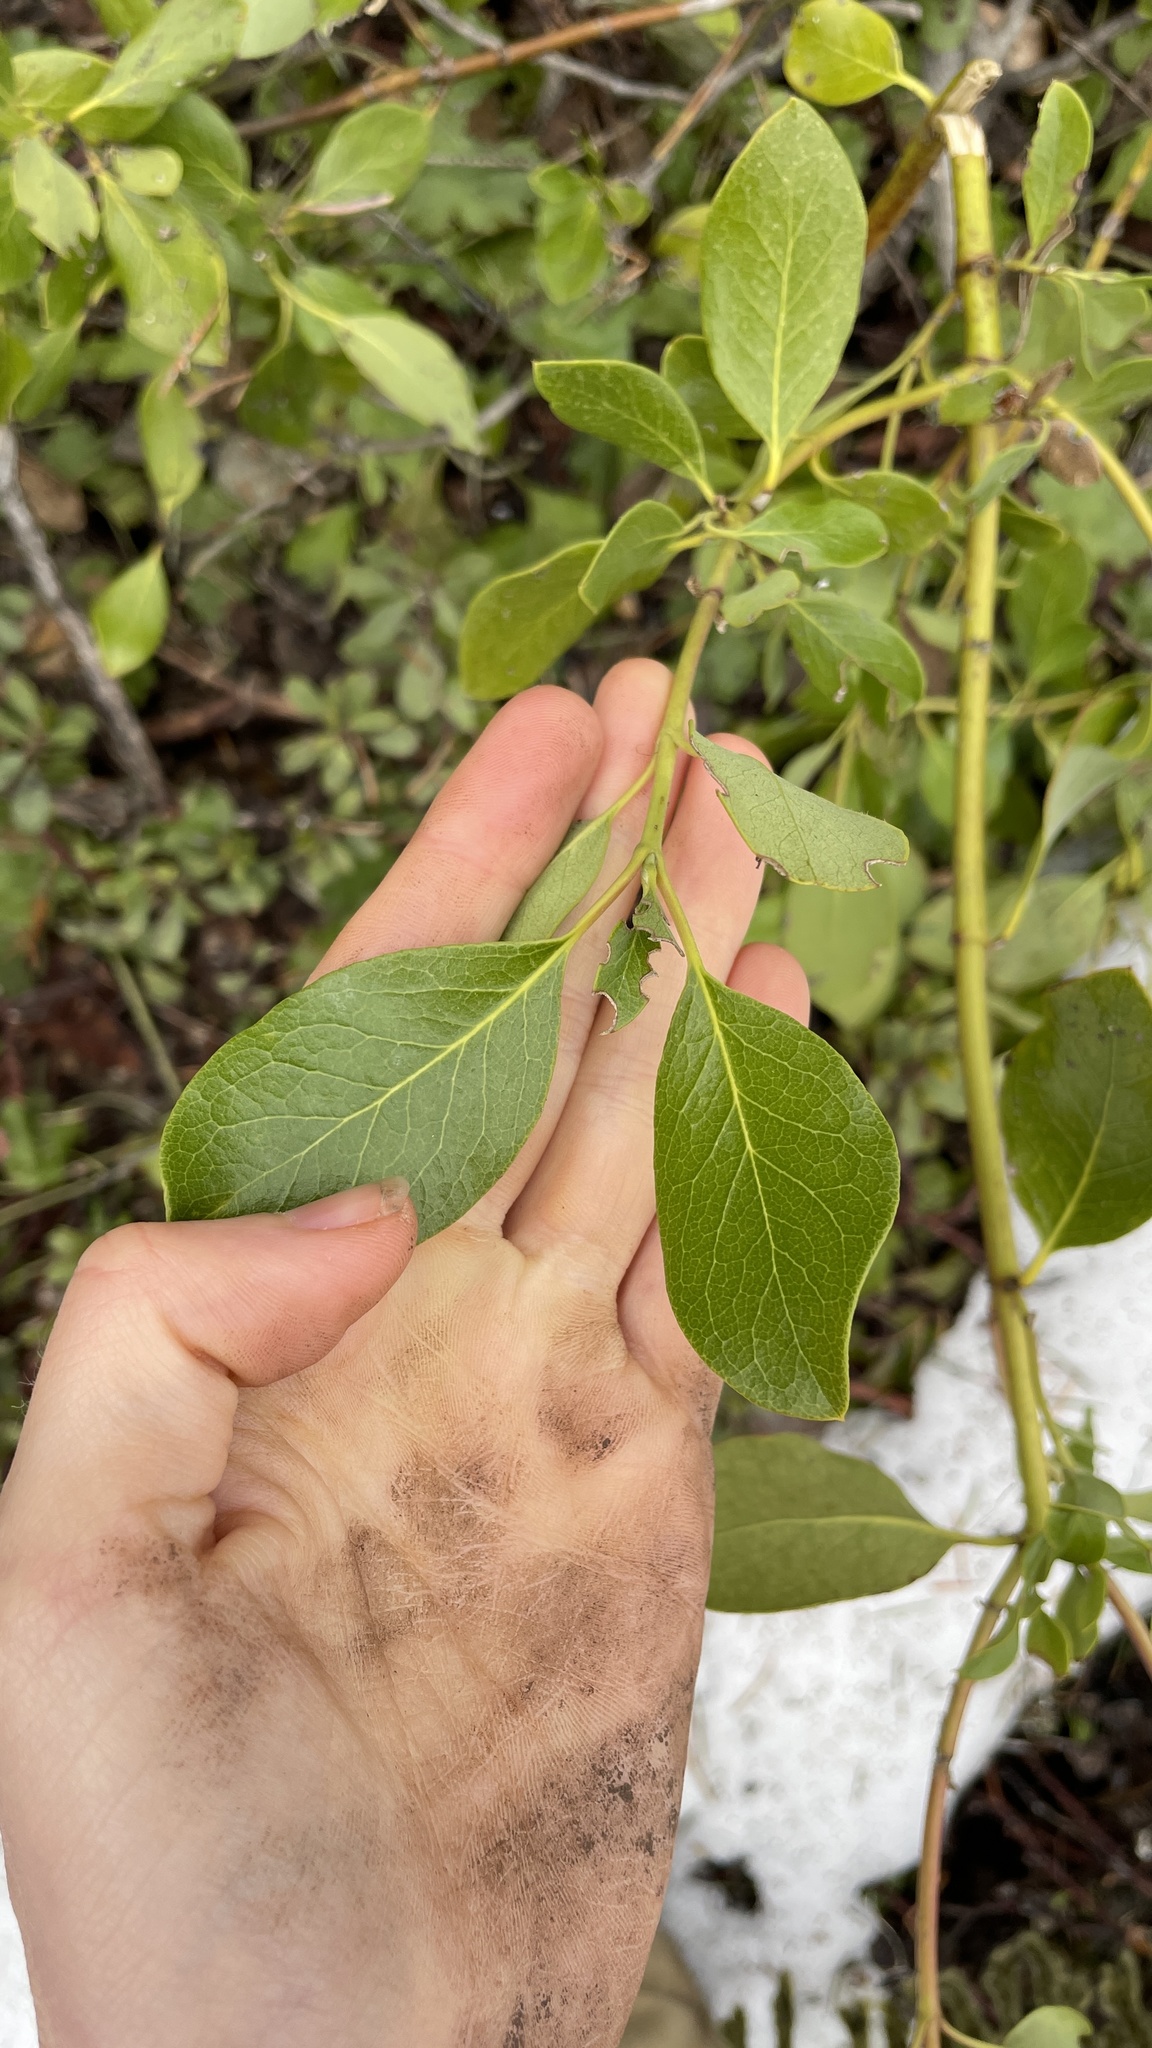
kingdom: Plantae
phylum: Tracheophyta
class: Magnoliopsida
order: Garryales
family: Garryaceae
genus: Garrya
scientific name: Garrya fremontii
